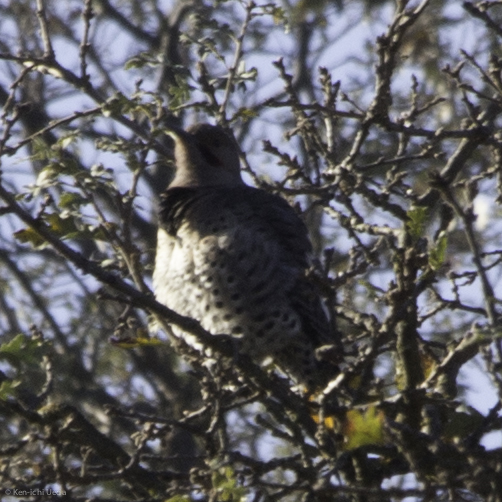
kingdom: Animalia
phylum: Chordata
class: Aves
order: Piciformes
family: Picidae
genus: Colaptes
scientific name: Colaptes auratus
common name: Northern flicker
